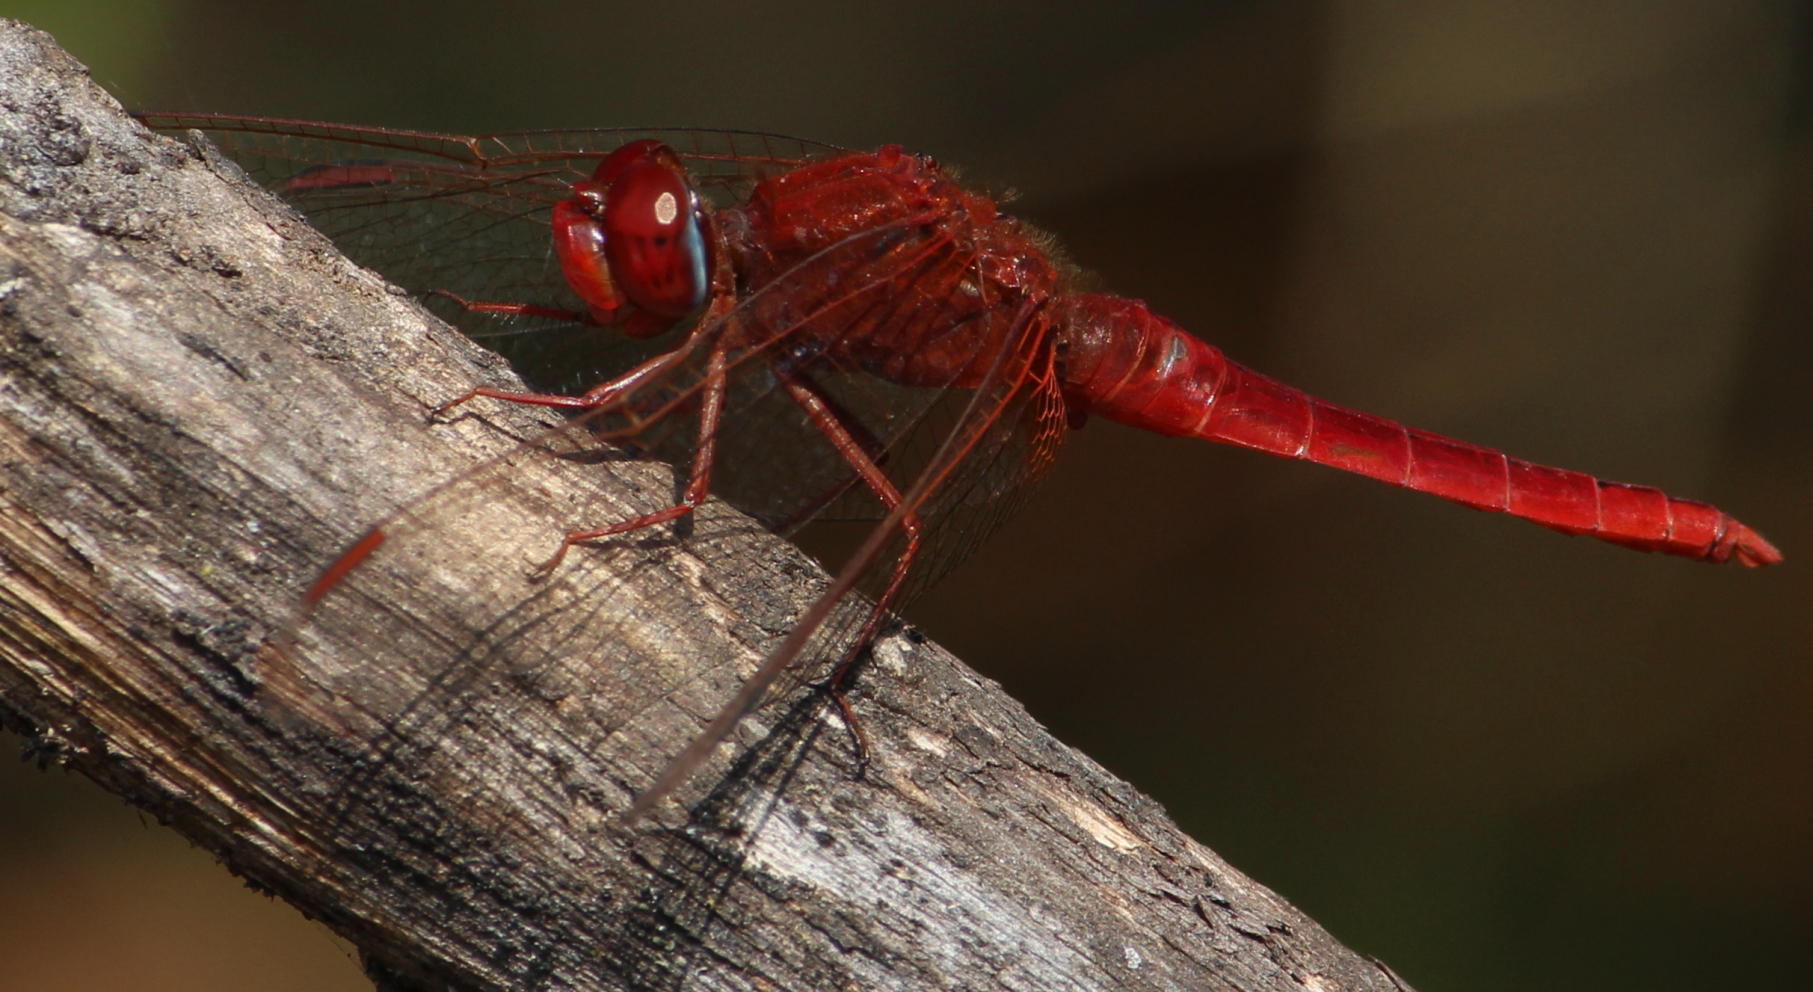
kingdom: Animalia
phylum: Arthropoda
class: Insecta
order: Odonata
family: Libellulidae
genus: Crocothemis
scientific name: Crocothemis erythraea
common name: Scarlet dragonfly
